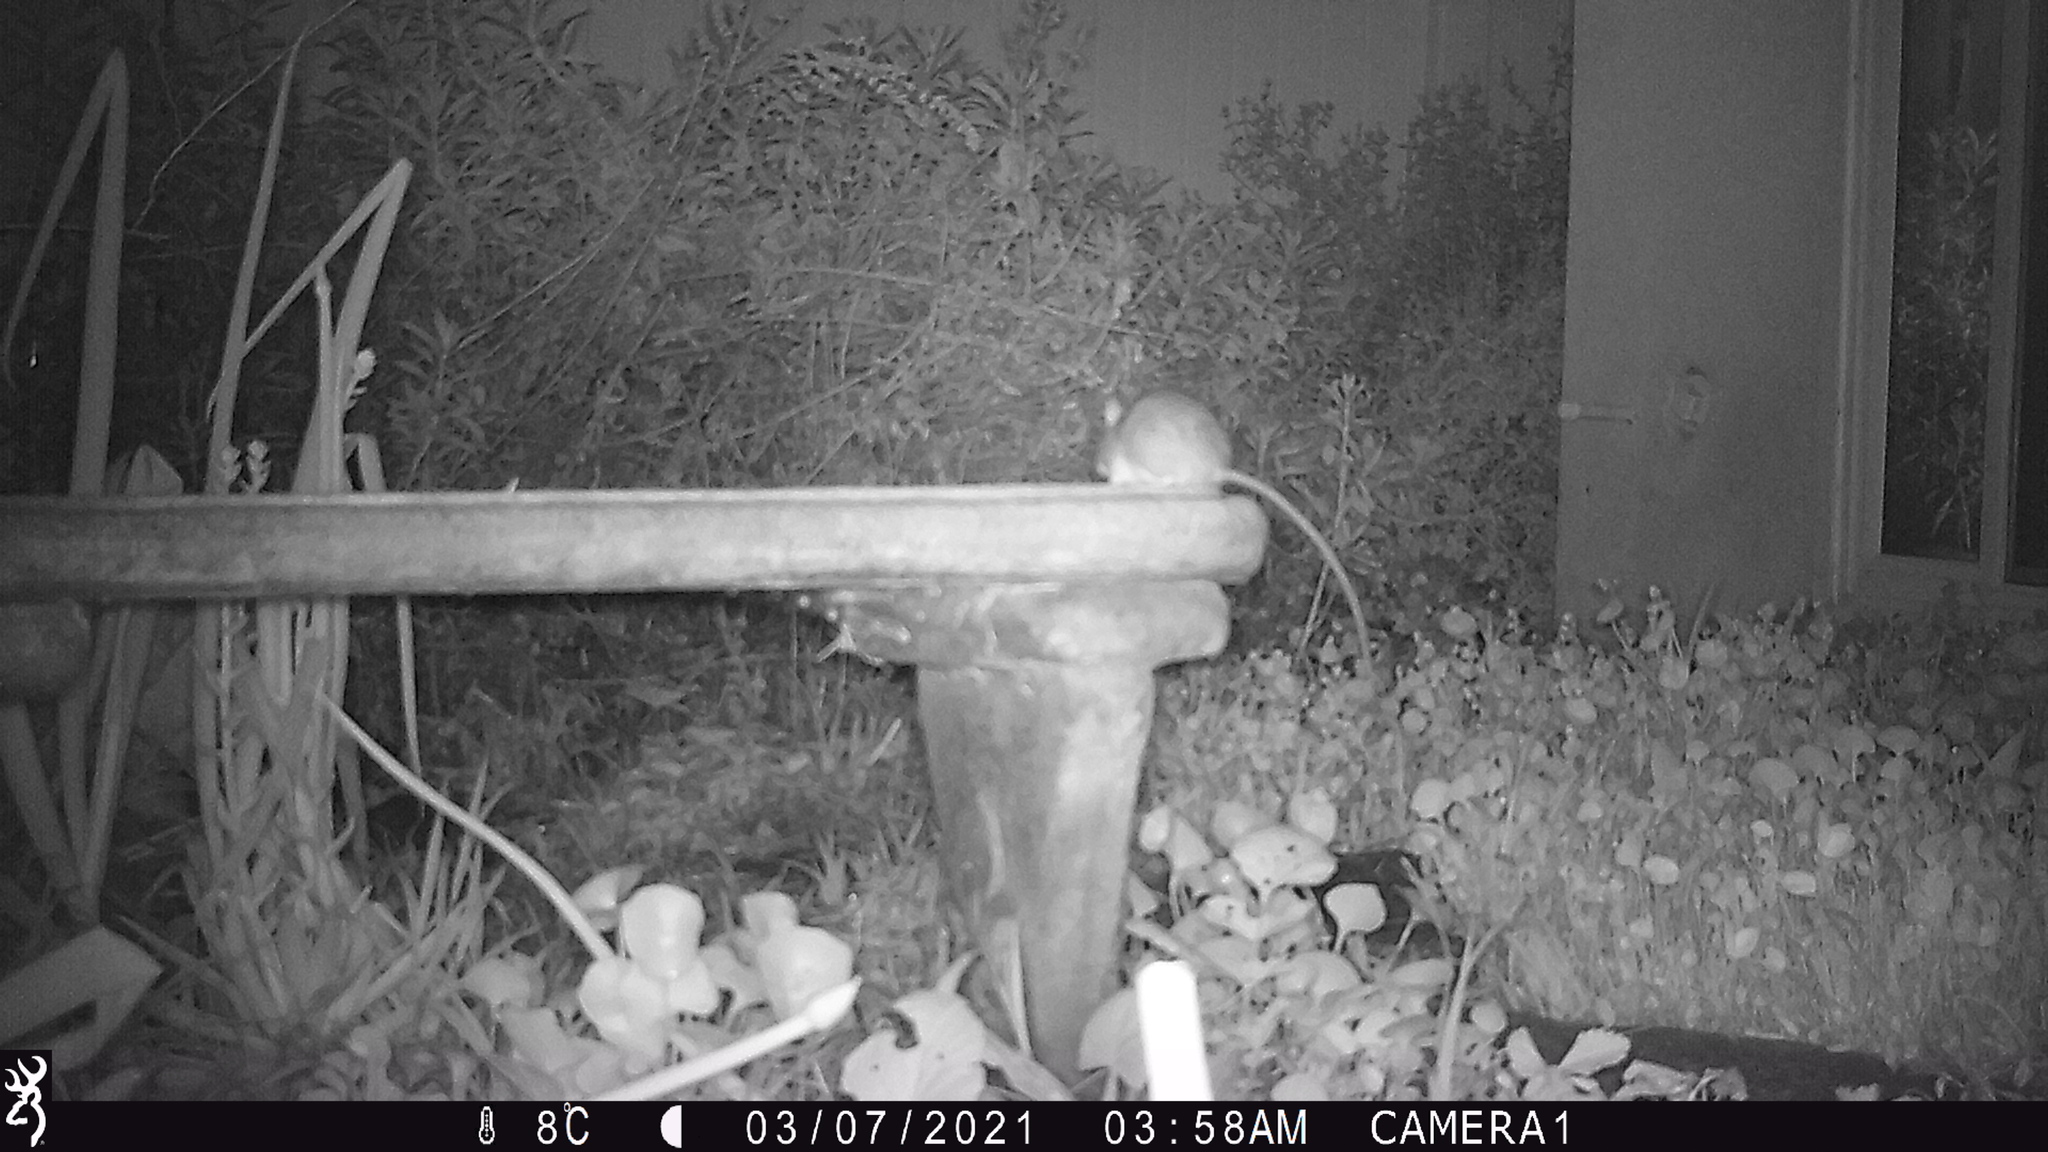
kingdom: Animalia
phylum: Chordata
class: Mammalia
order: Rodentia
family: Muridae
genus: Rattus
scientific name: Rattus rattus
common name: Black rat
